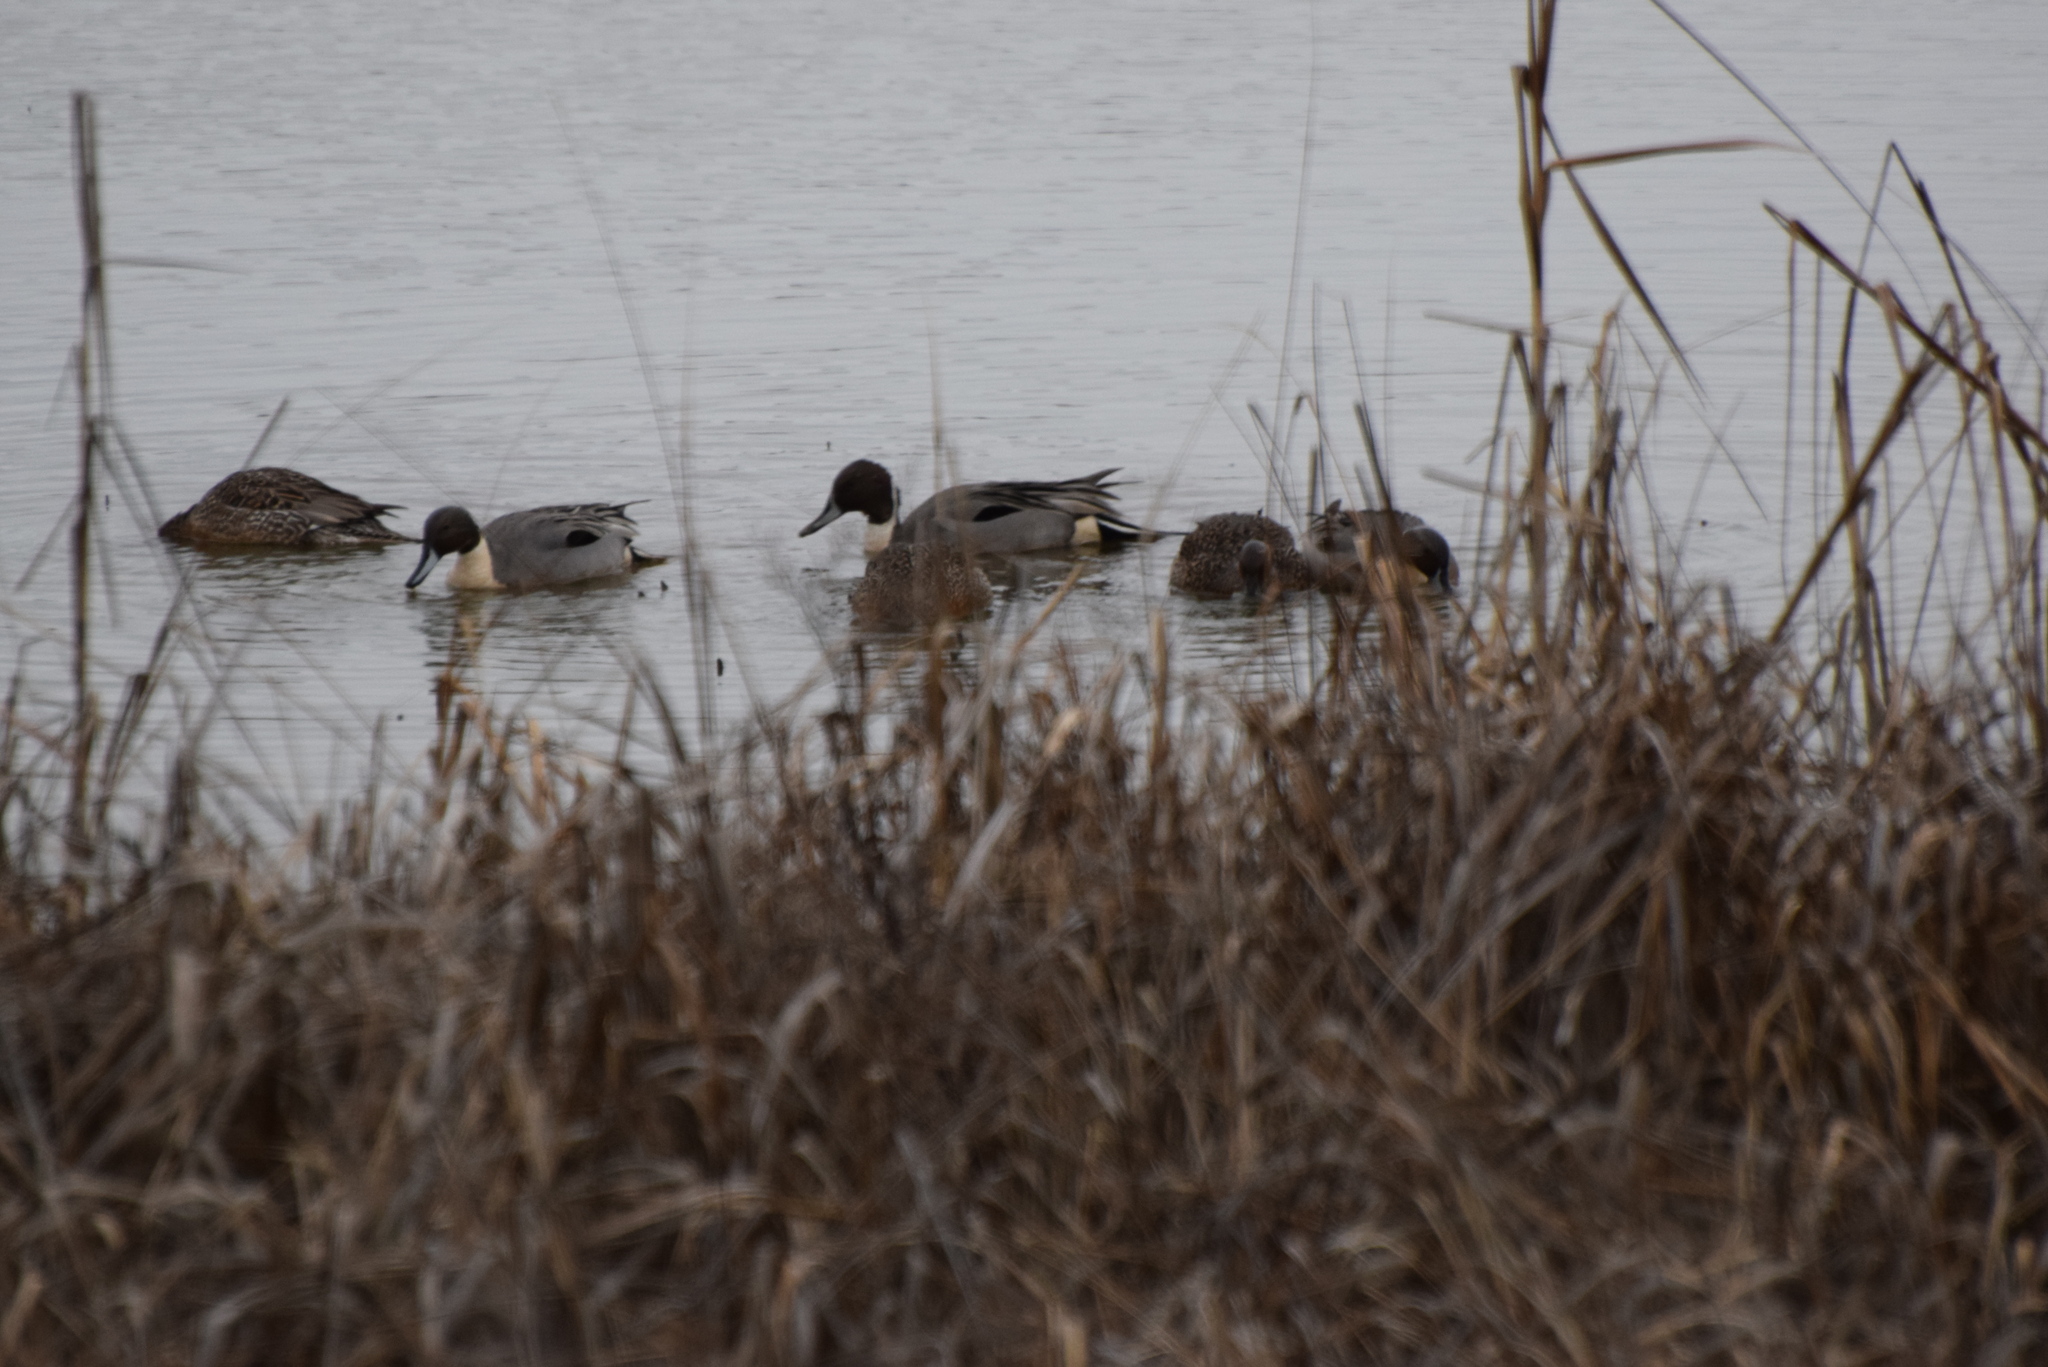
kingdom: Animalia
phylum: Chordata
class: Aves
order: Anseriformes
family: Anatidae
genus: Anas
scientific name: Anas acuta
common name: Northern pintail
